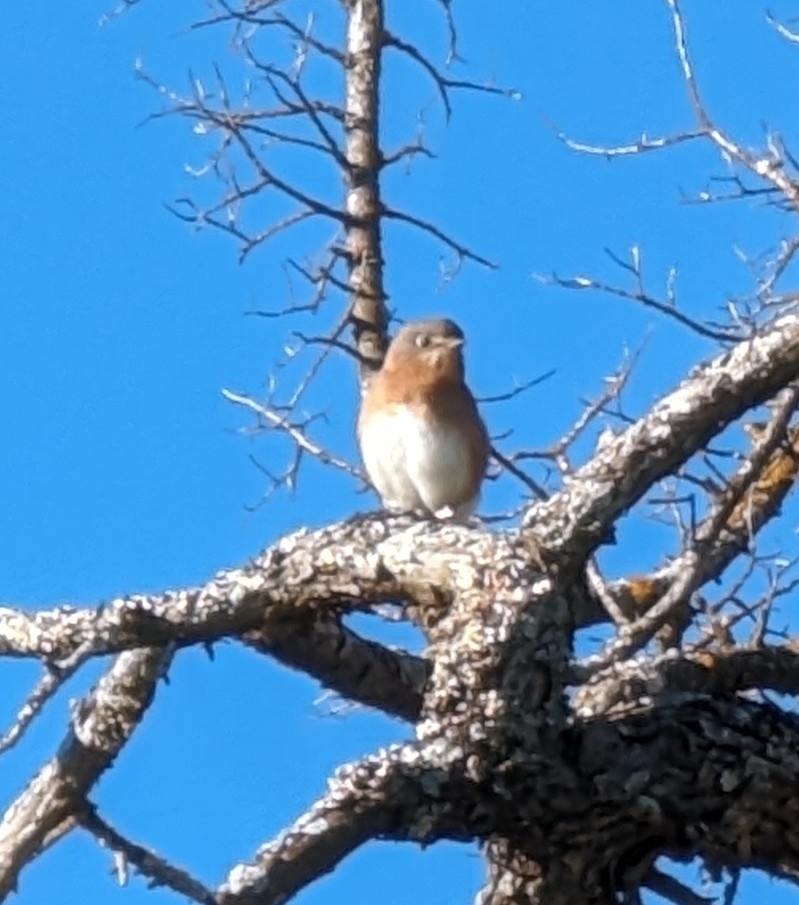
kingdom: Animalia
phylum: Chordata
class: Aves
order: Passeriformes
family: Turdidae
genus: Sialia
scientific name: Sialia sialis
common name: Eastern bluebird
